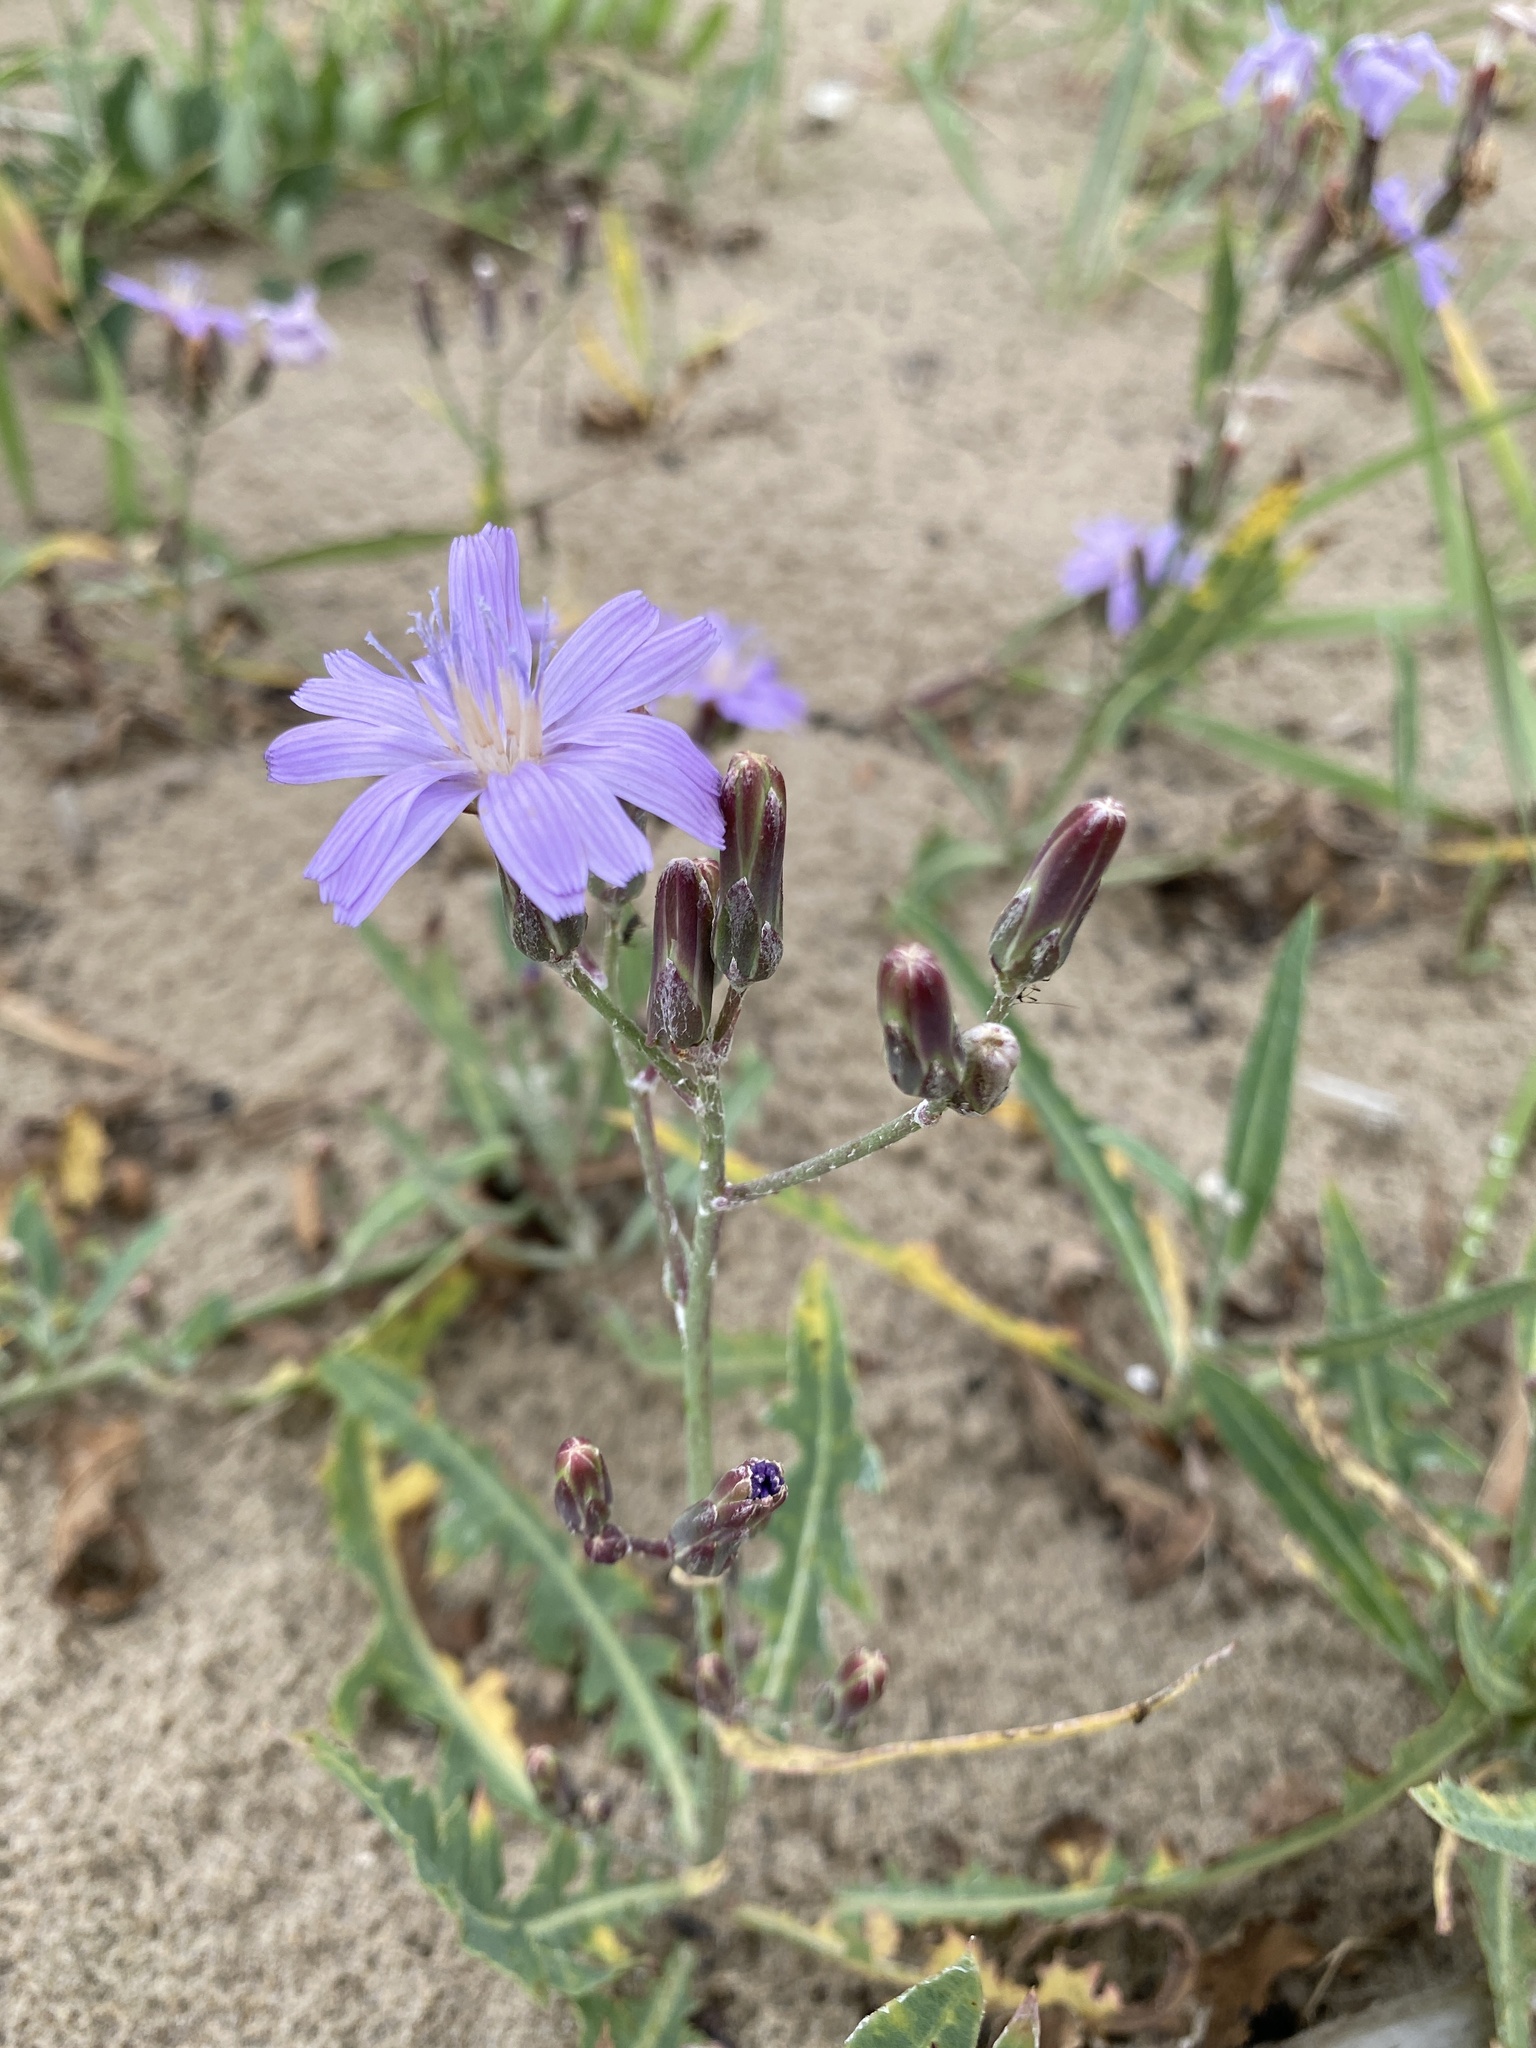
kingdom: Plantae
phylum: Tracheophyta
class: Magnoliopsida
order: Asterales
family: Asteraceae
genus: Lactuca
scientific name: Lactuca tatarica
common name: Blue lettuce
